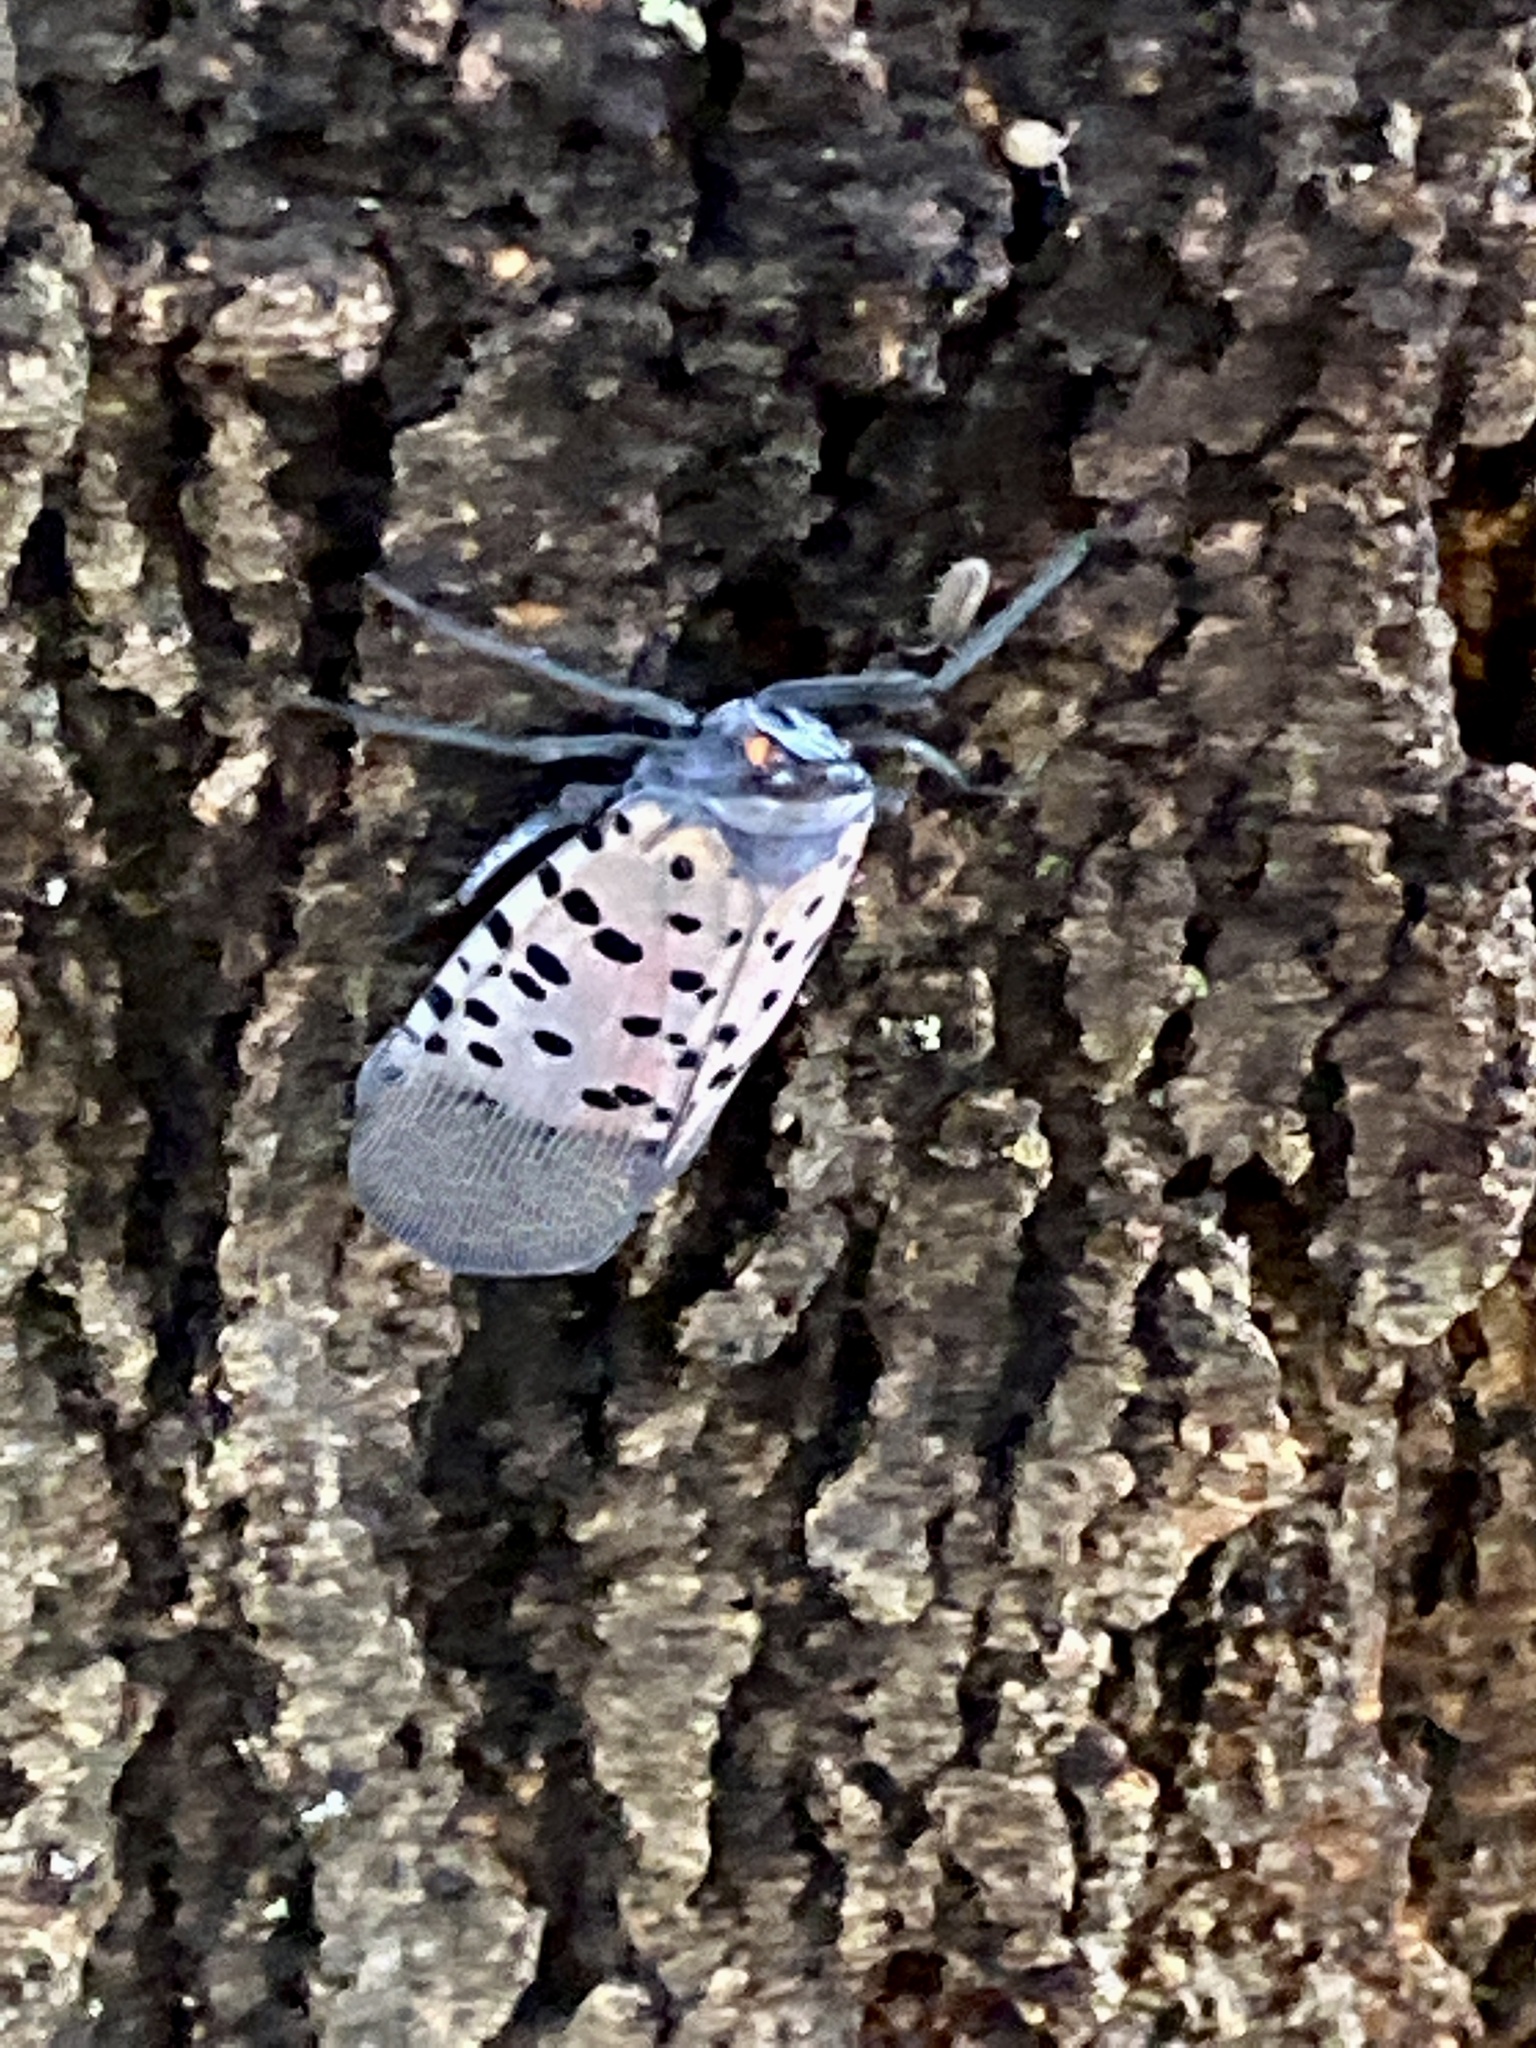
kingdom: Animalia
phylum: Arthropoda
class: Insecta
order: Hemiptera
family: Fulgoridae
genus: Lycorma
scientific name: Lycorma delicatula
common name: Spotted lanternfly
